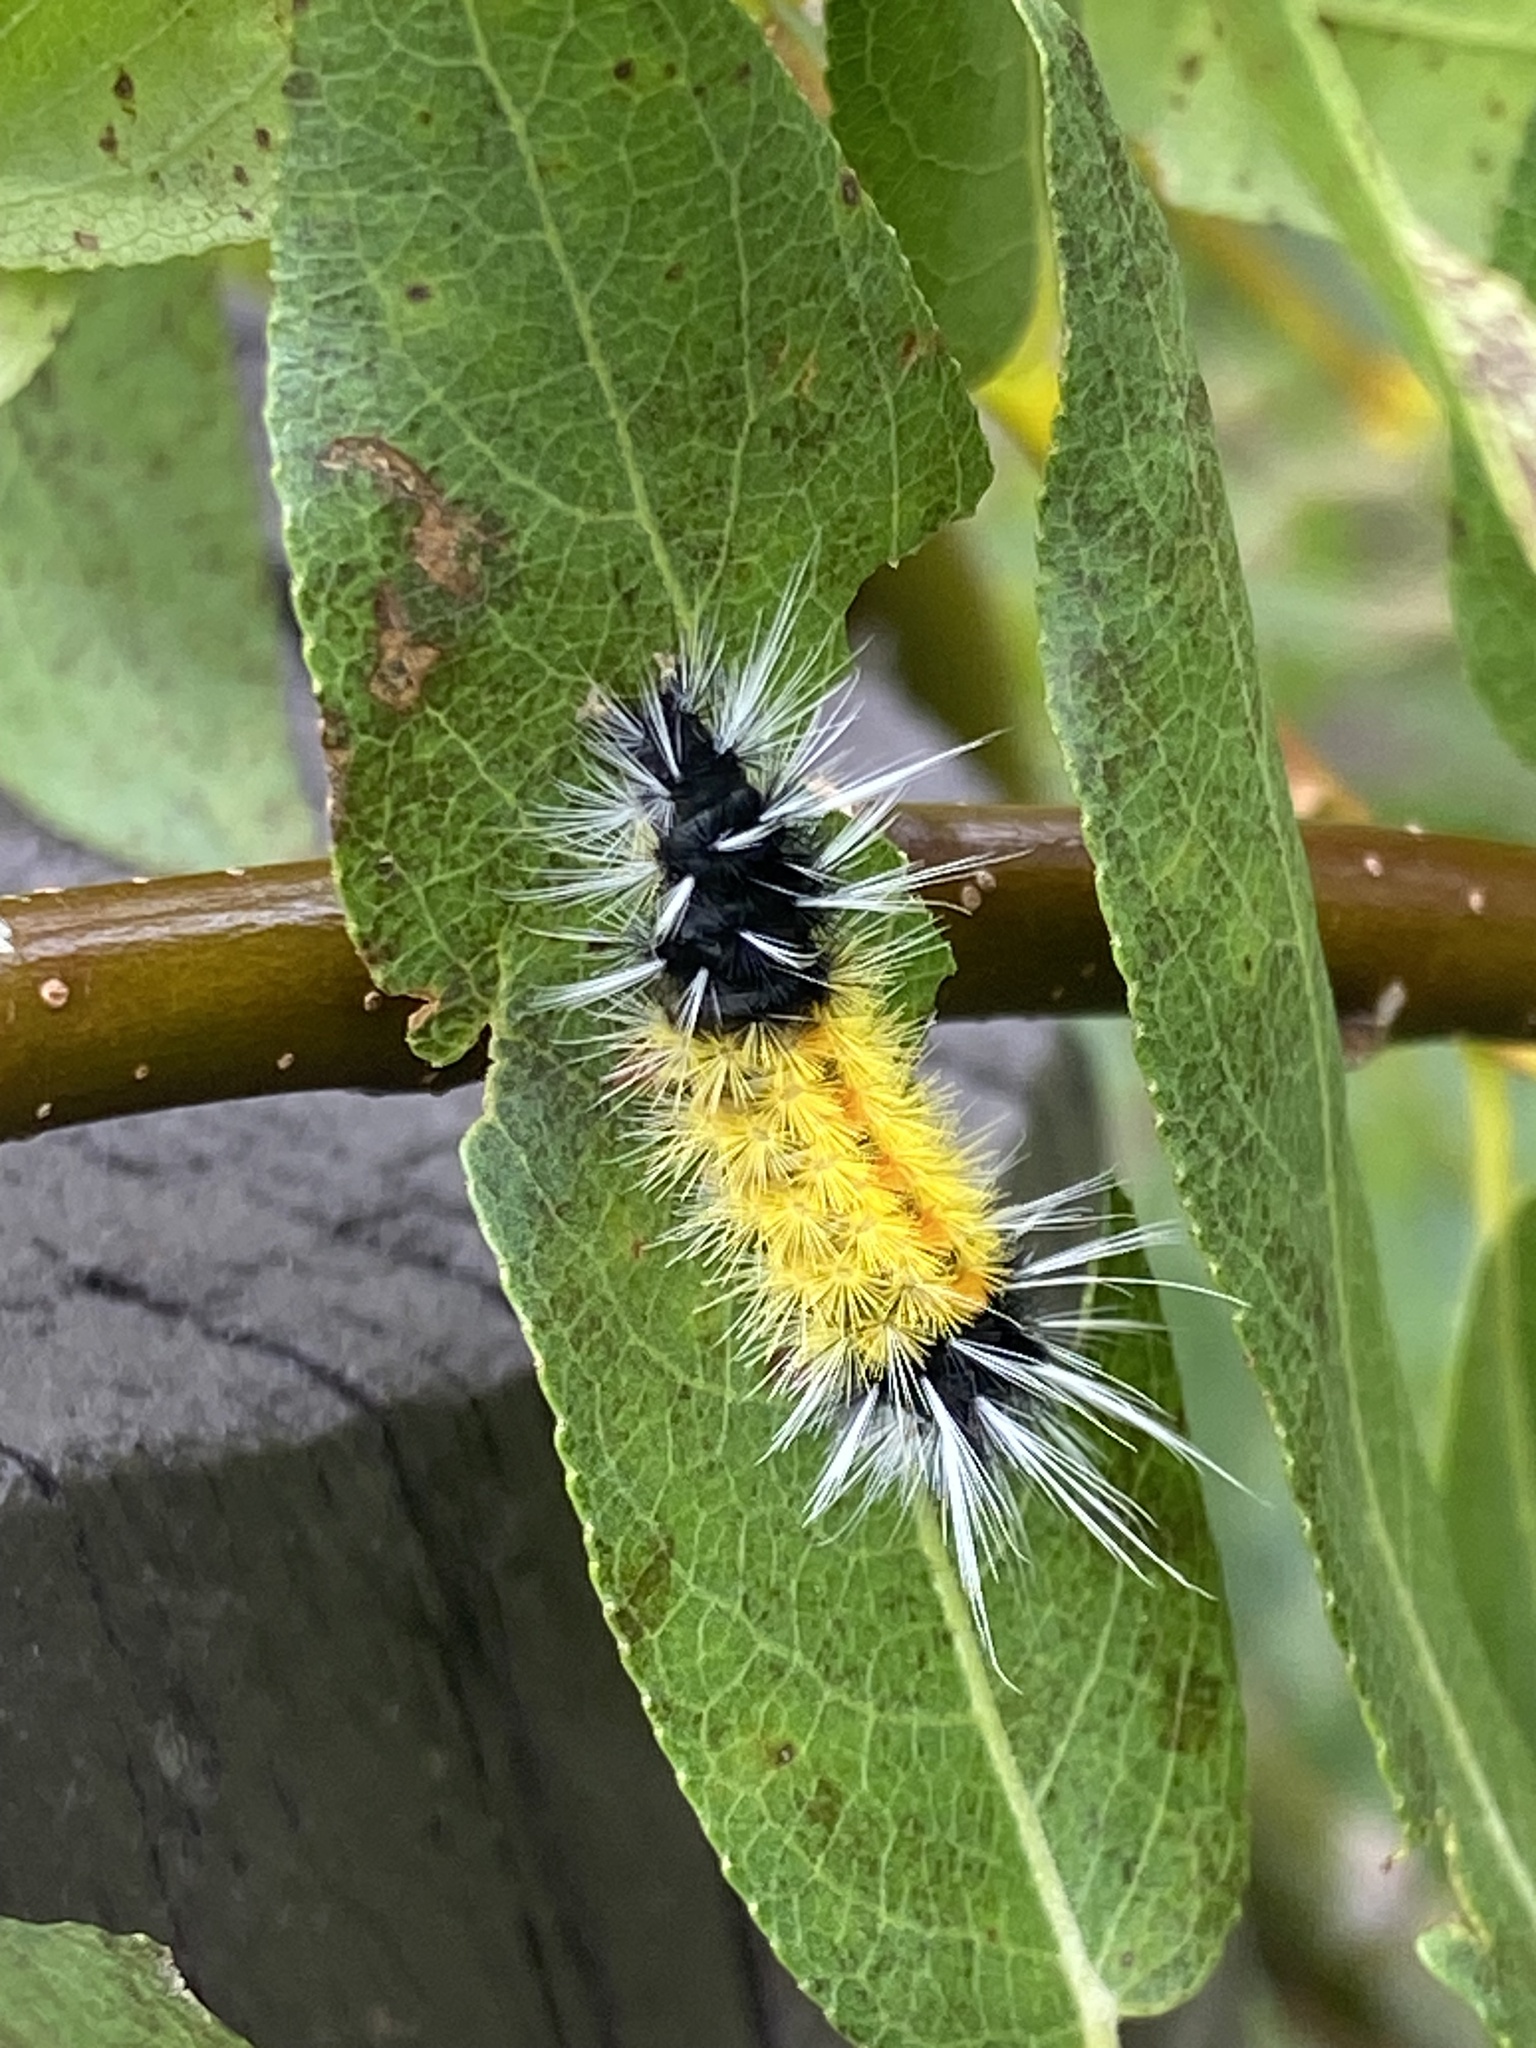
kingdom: Animalia
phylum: Arthropoda
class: Insecta
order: Lepidoptera
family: Erebidae
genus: Lophocampa
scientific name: Lophocampa maculata
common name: Spotted tussock moth
